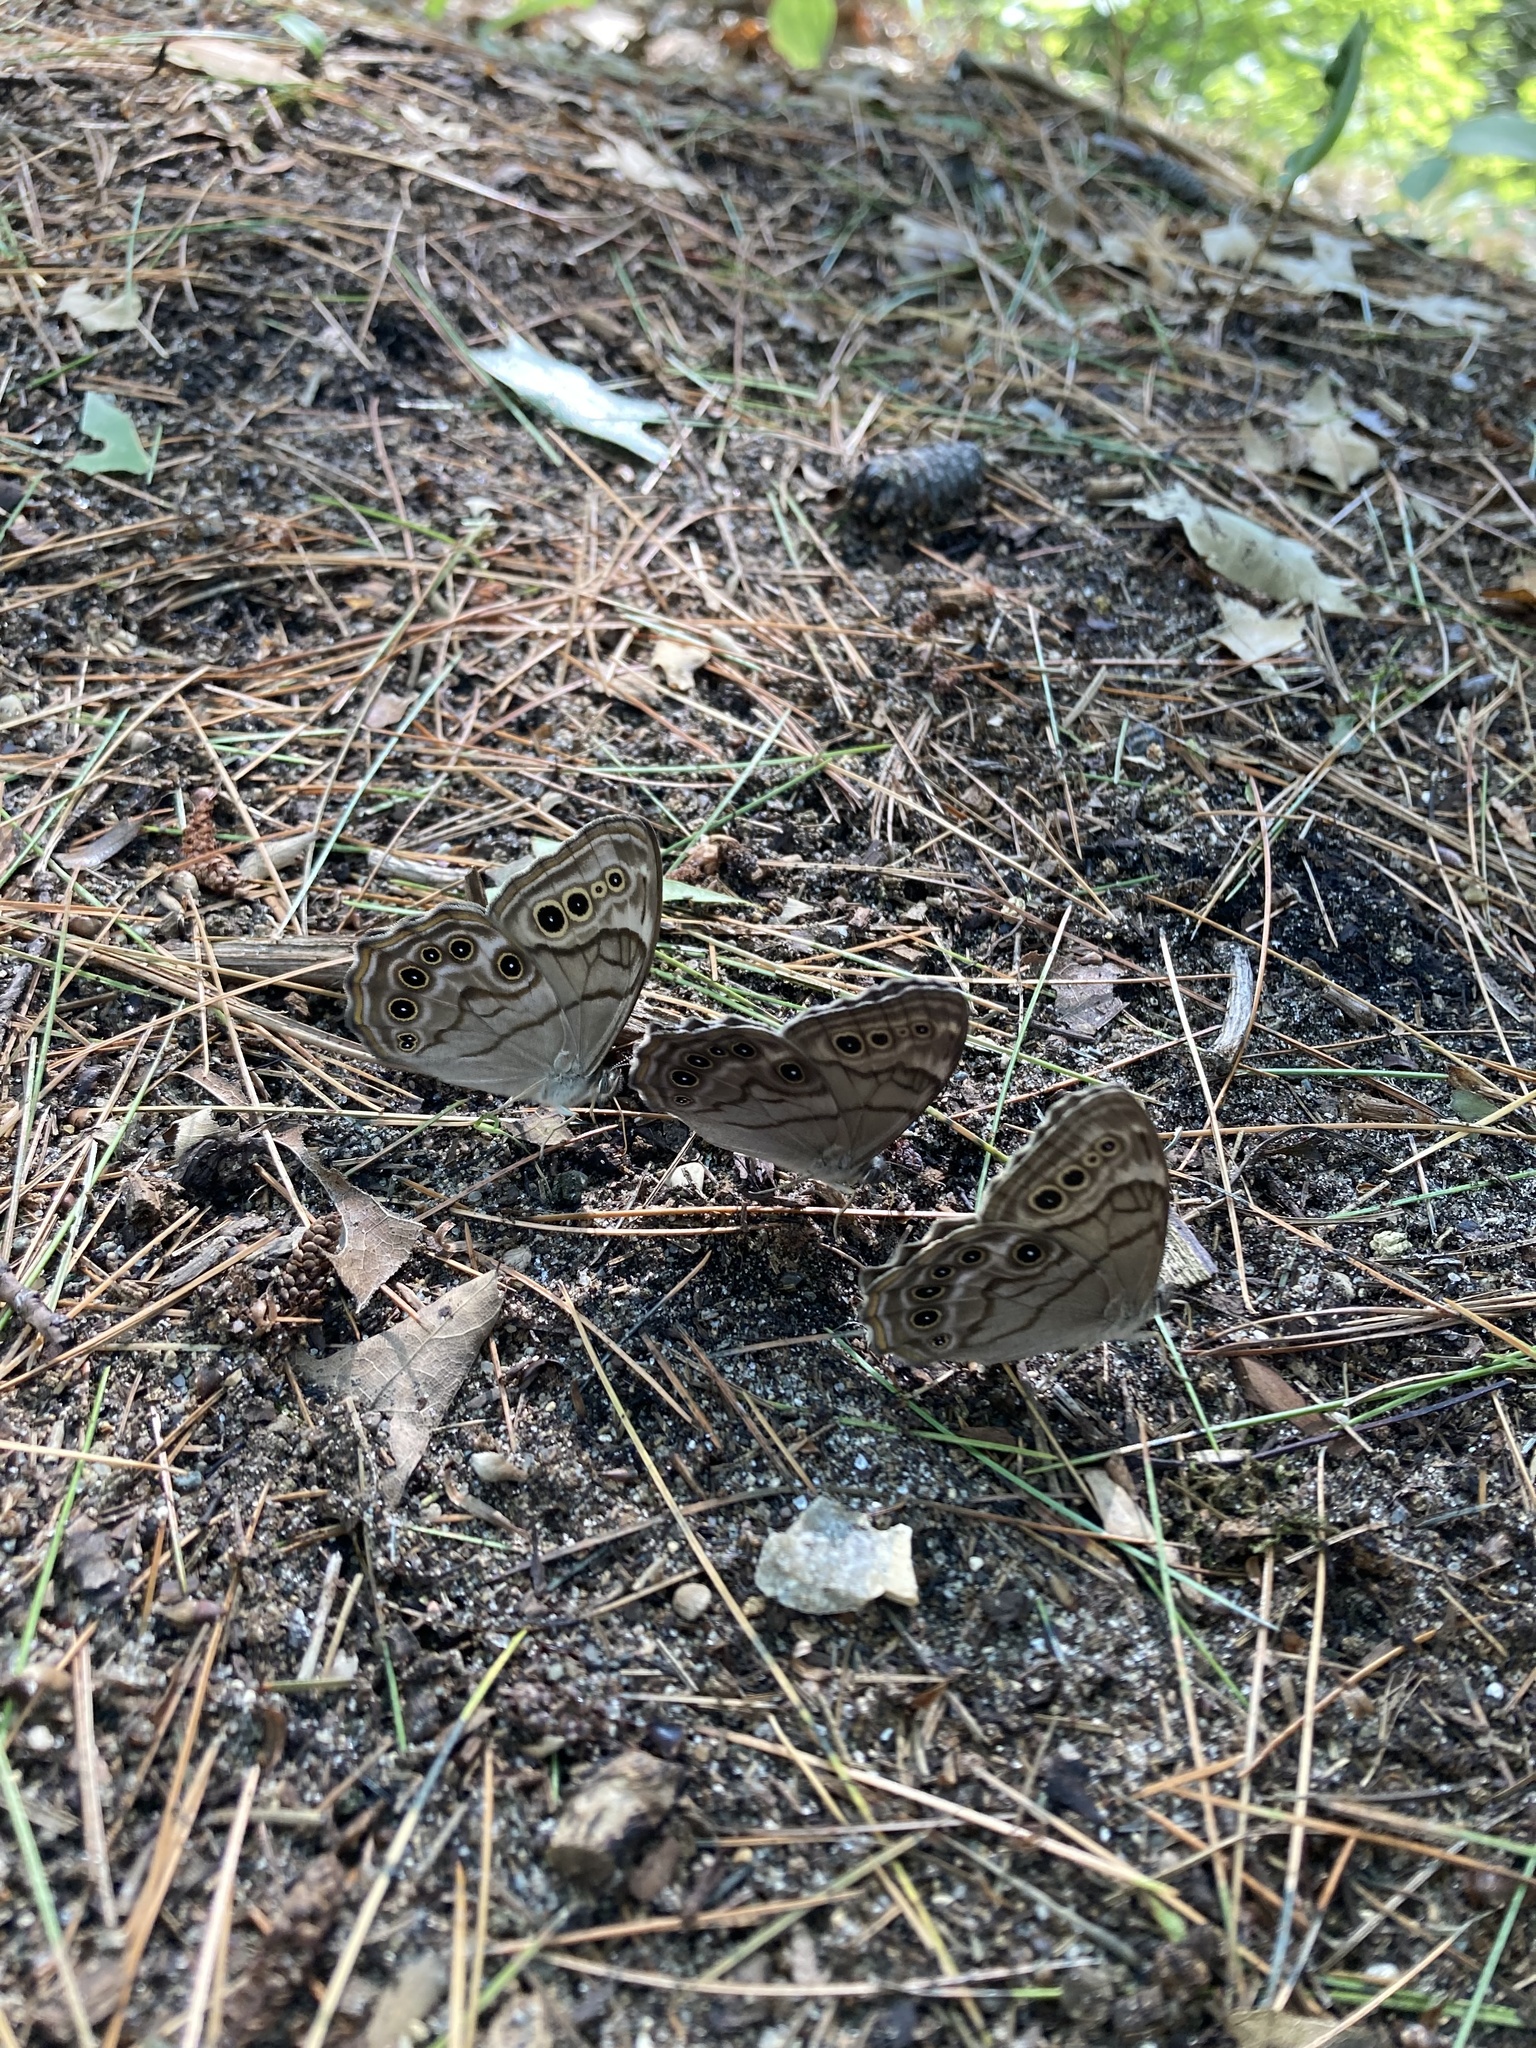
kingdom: Animalia
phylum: Arthropoda
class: Insecta
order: Lepidoptera
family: Nymphalidae
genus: Lethe
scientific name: Lethe anthedon
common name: Northern pearly-eye
